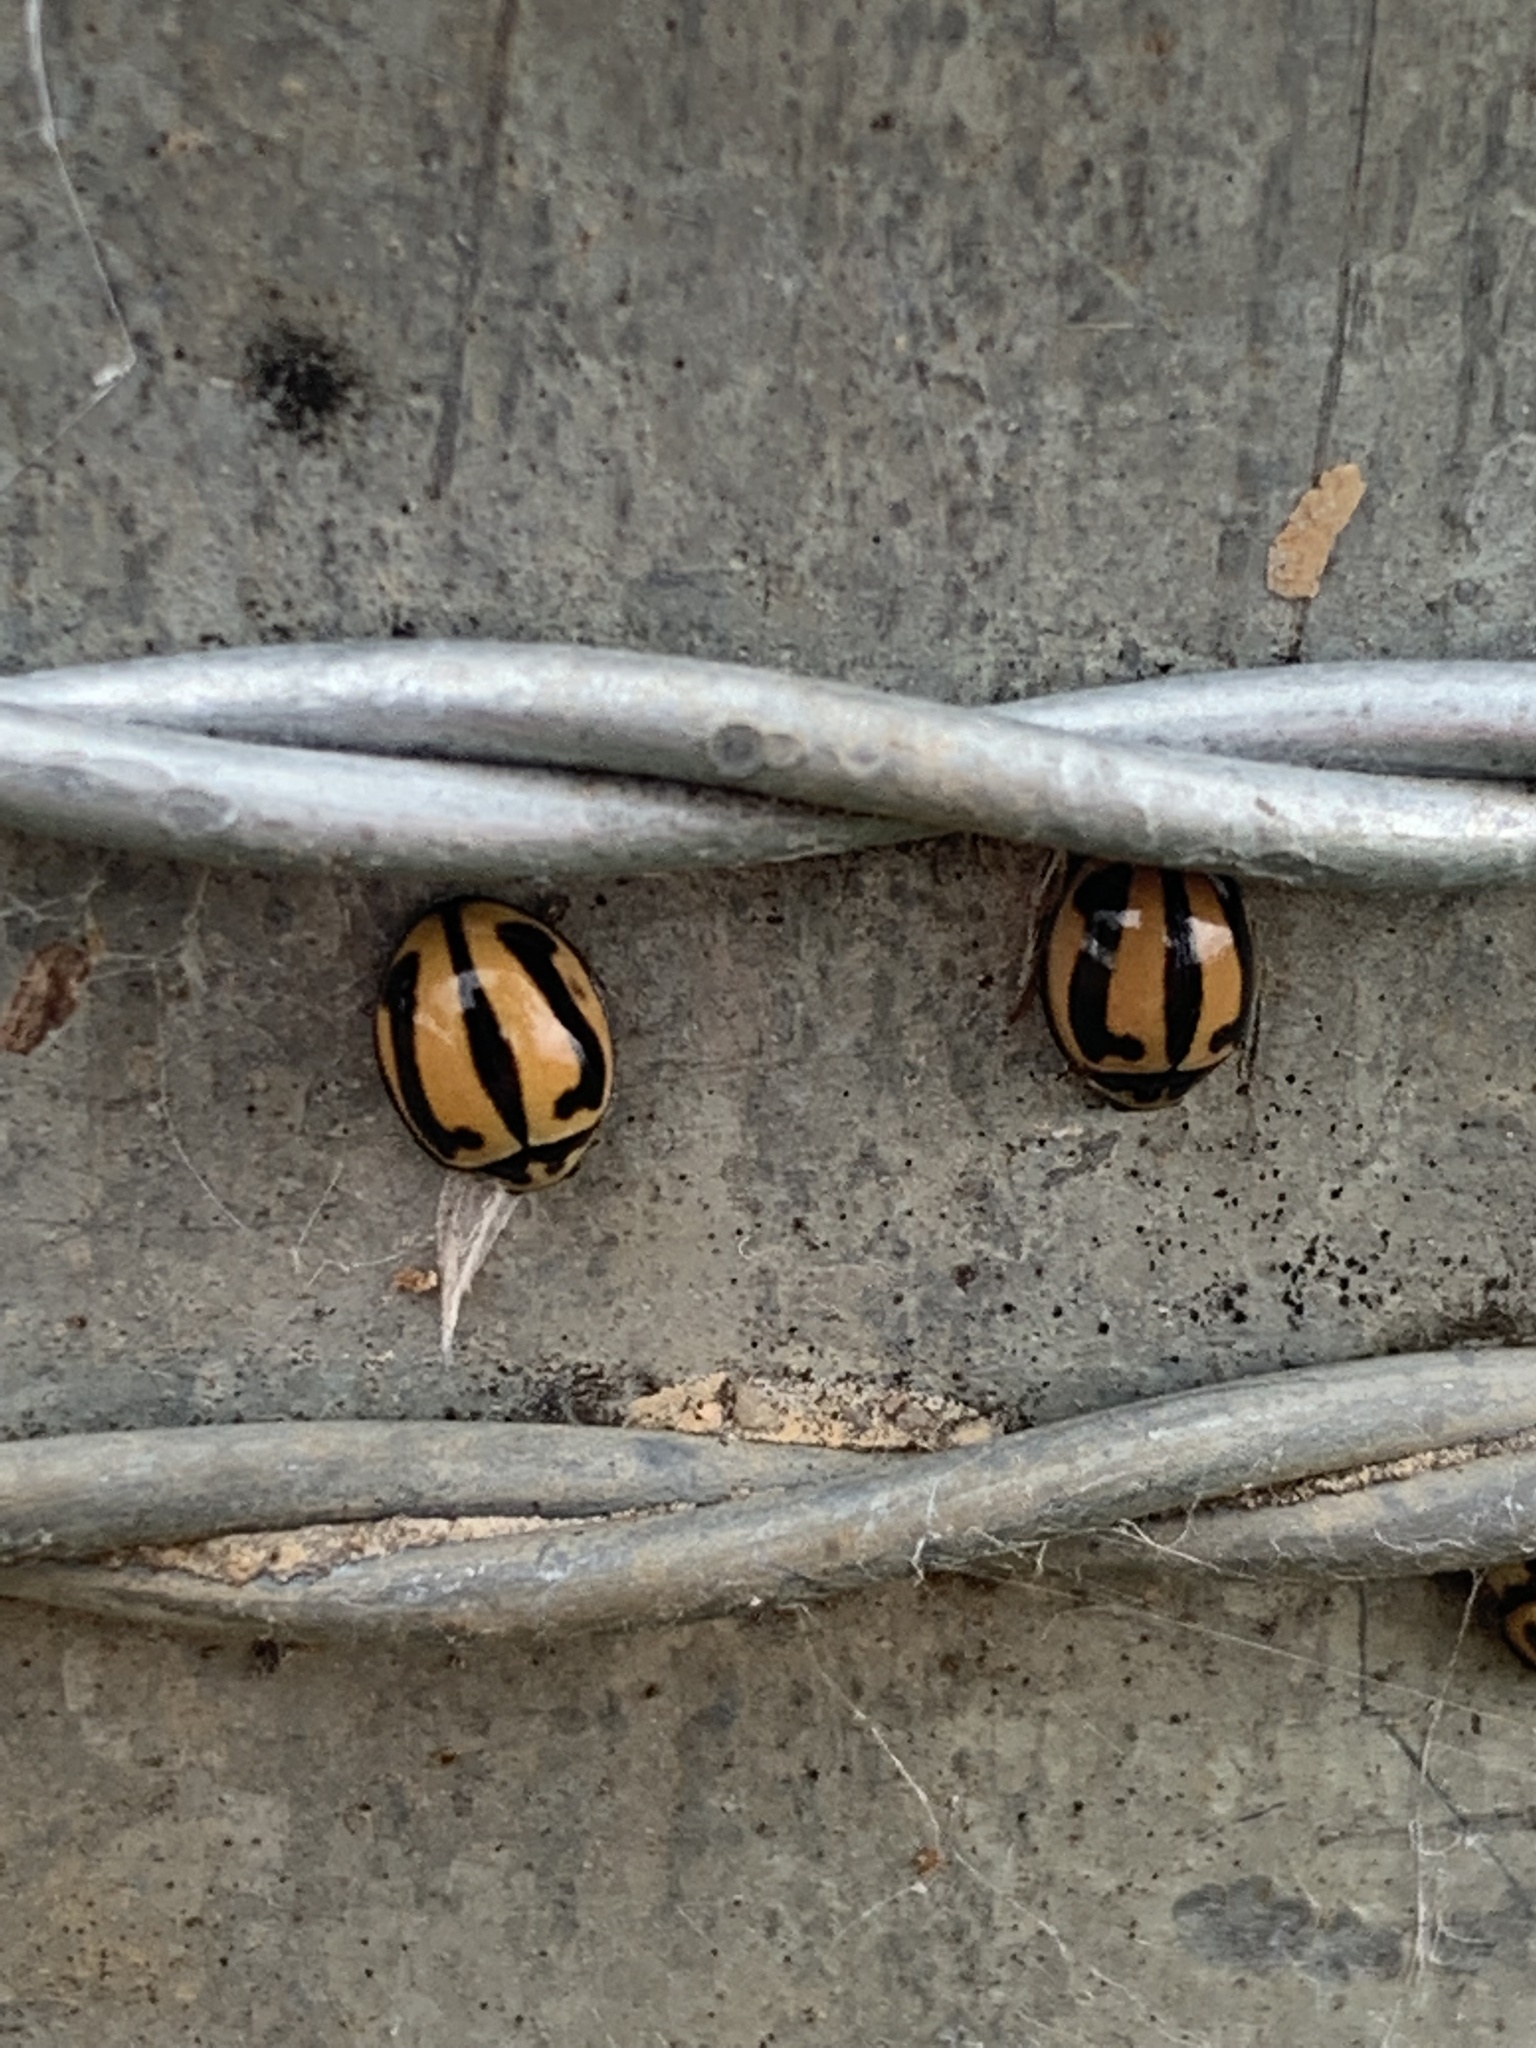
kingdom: Animalia
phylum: Arthropoda
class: Insecta
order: Coleoptera
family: Coccinellidae
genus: Micraspis
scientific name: Micraspis frenata
